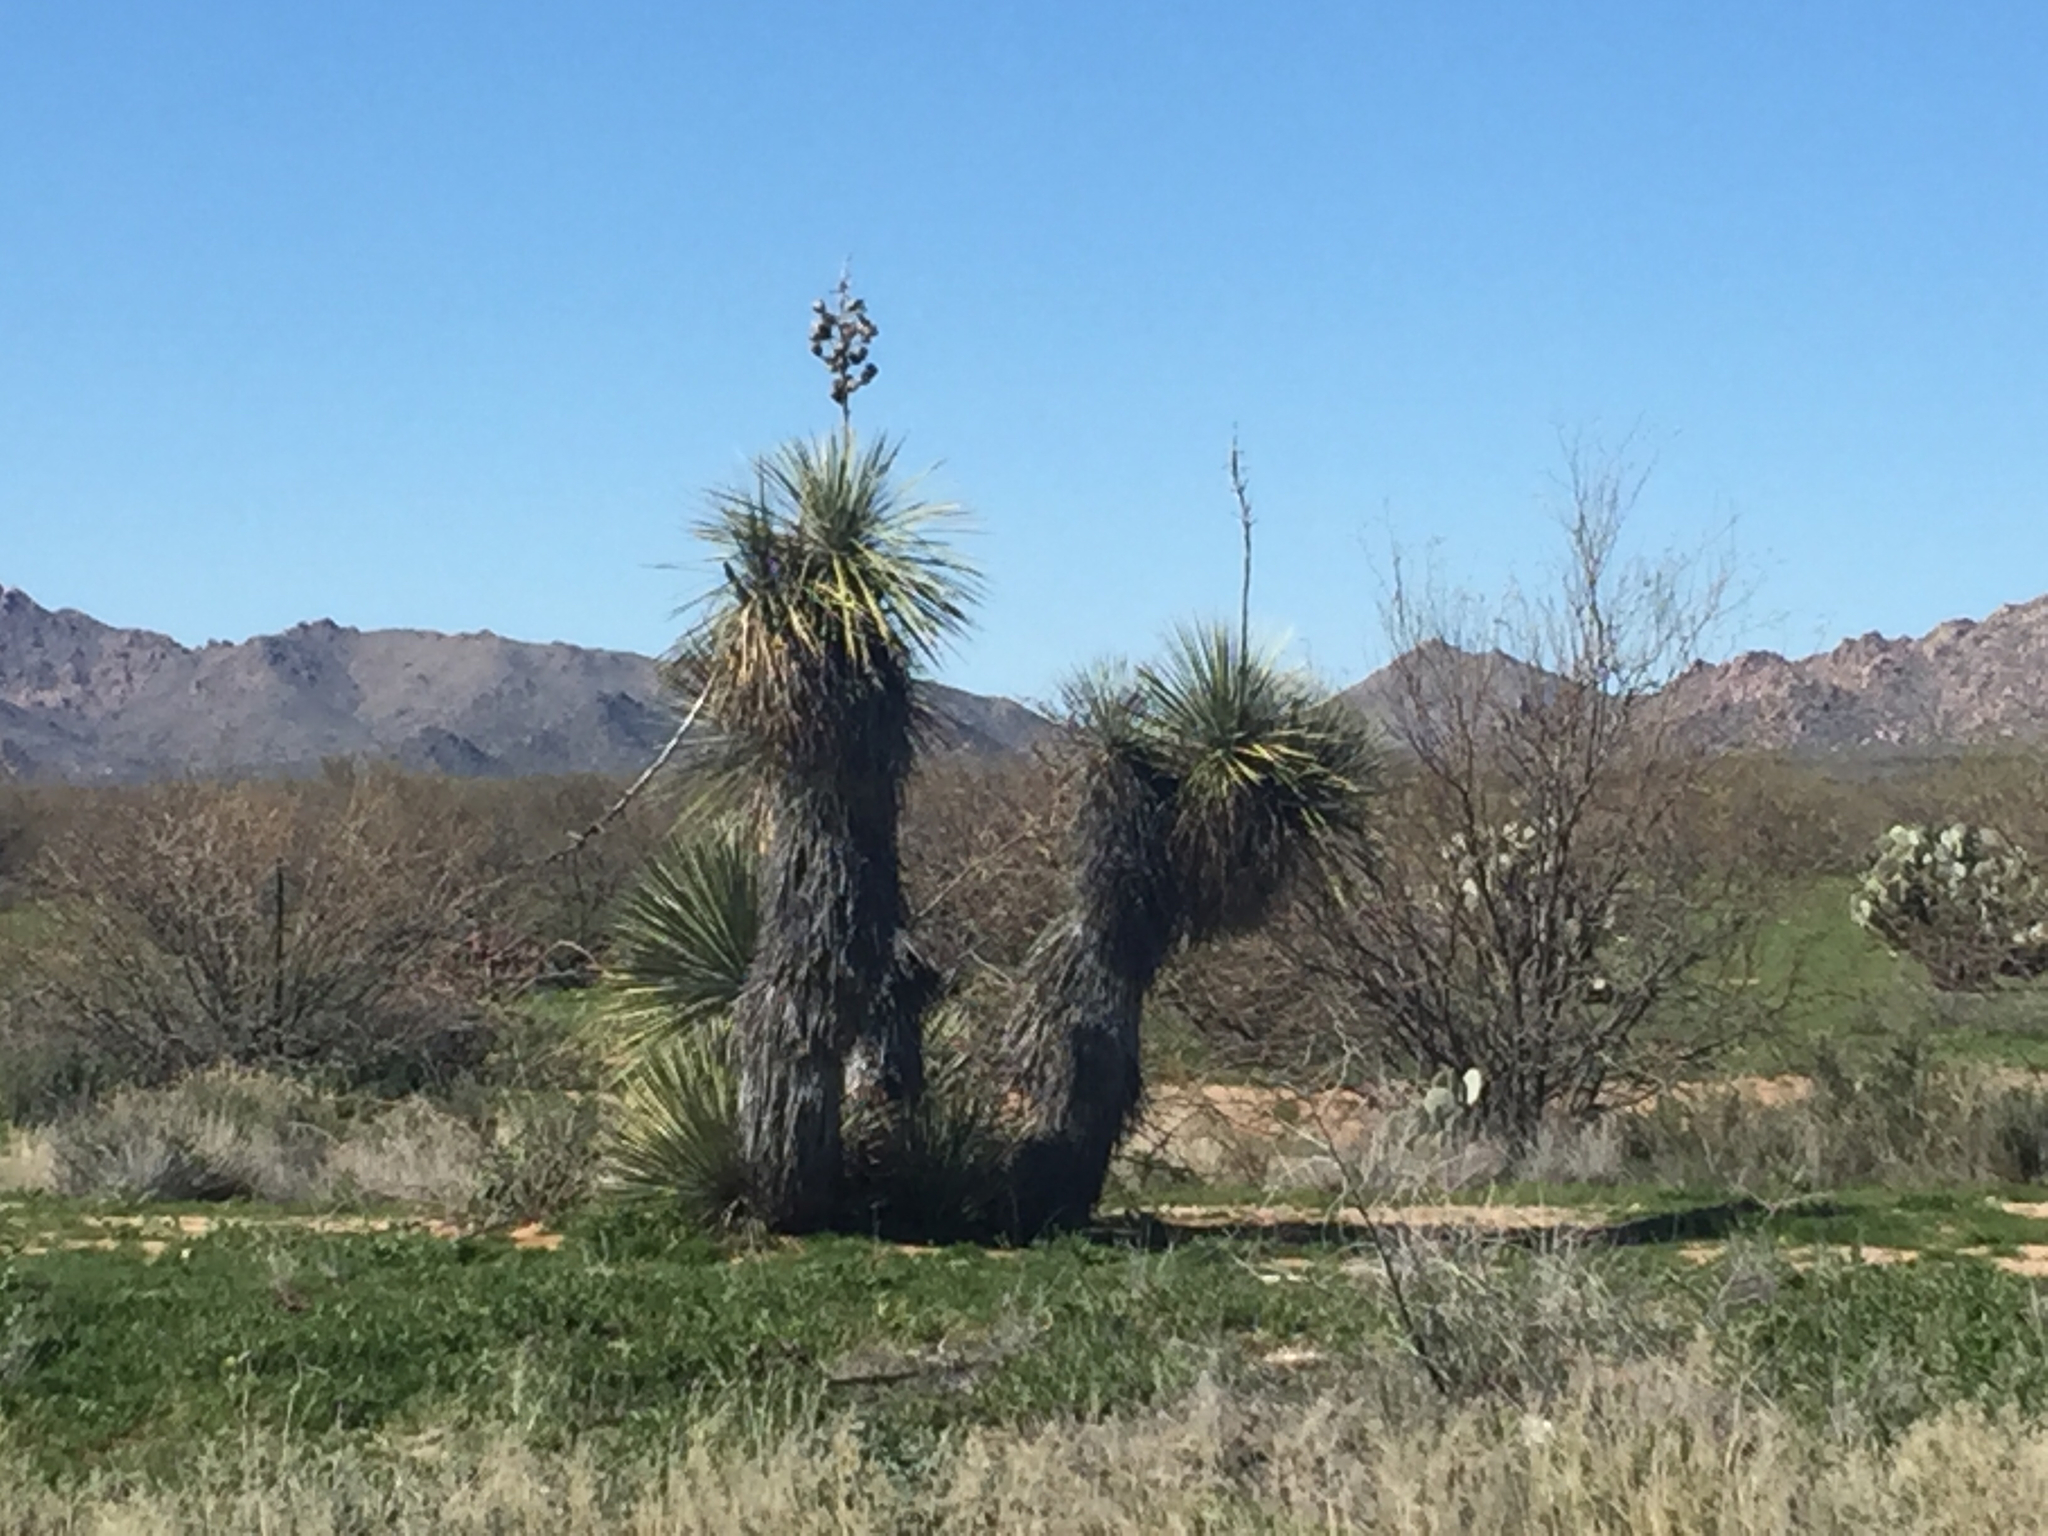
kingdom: Plantae
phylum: Tracheophyta
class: Liliopsida
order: Asparagales
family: Asparagaceae
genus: Yucca
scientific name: Yucca elata
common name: Palmella
